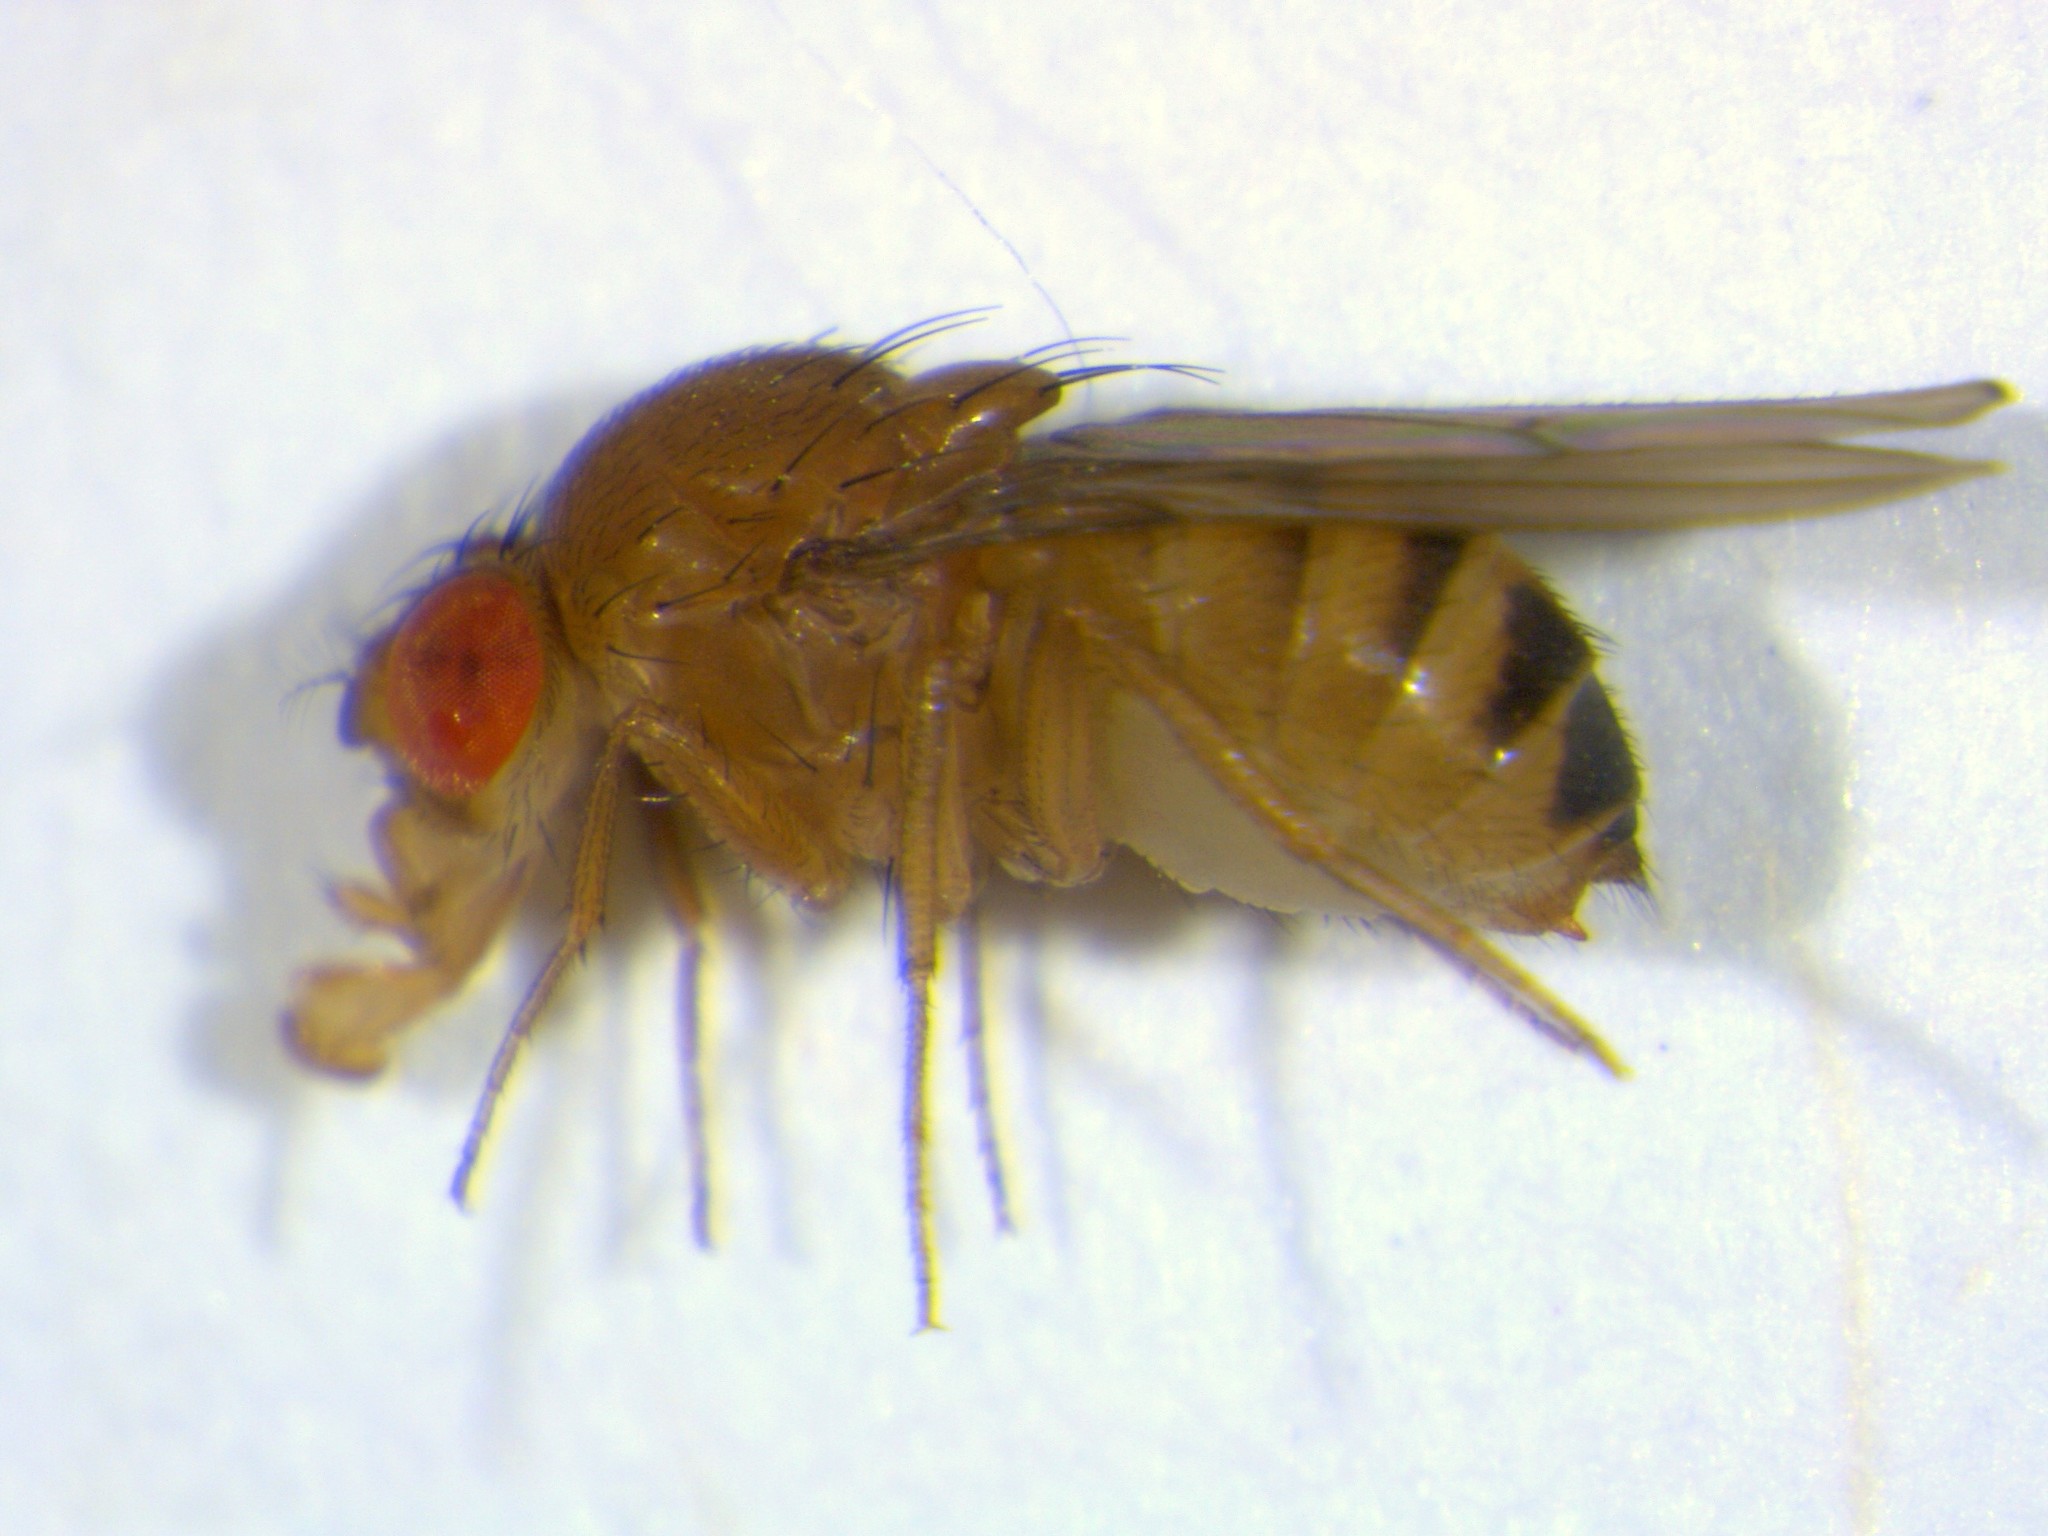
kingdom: Animalia
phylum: Arthropoda
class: Insecta
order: Diptera
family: Drosophilidae
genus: Drosophila
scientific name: Drosophila immigrans
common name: Pomace fly
